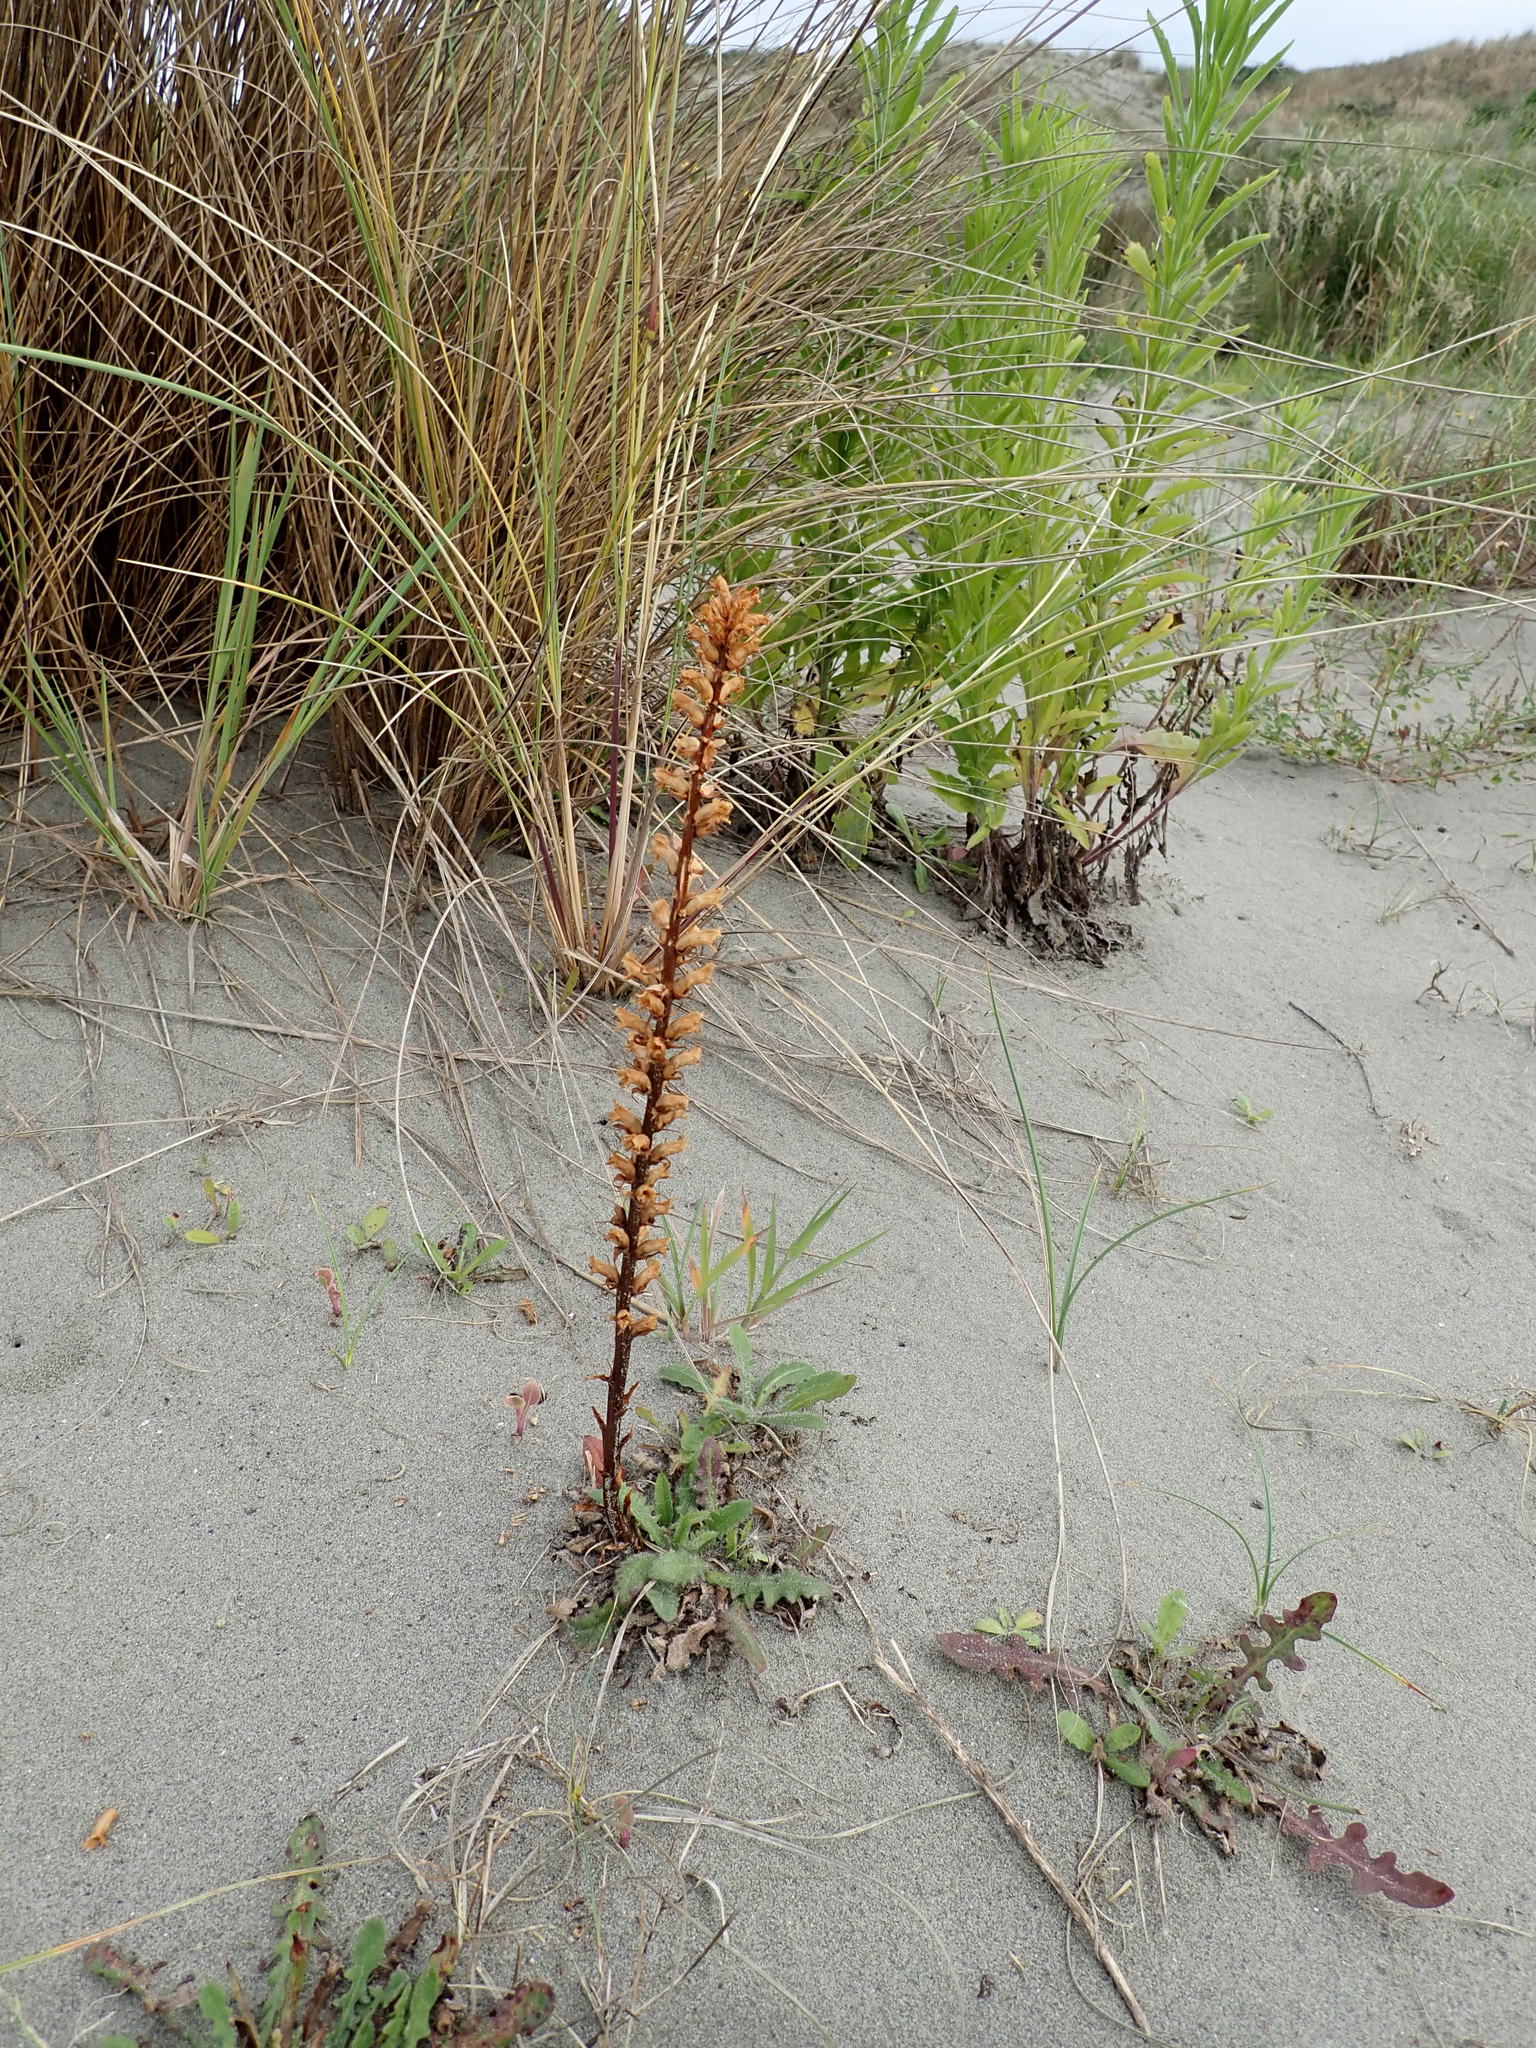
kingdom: Plantae
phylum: Tracheophyta
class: Magnoliopsida
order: Lamiales
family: Orobanchaceae
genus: Orobanche
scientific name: Orobanche minor
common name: Common broomrape
